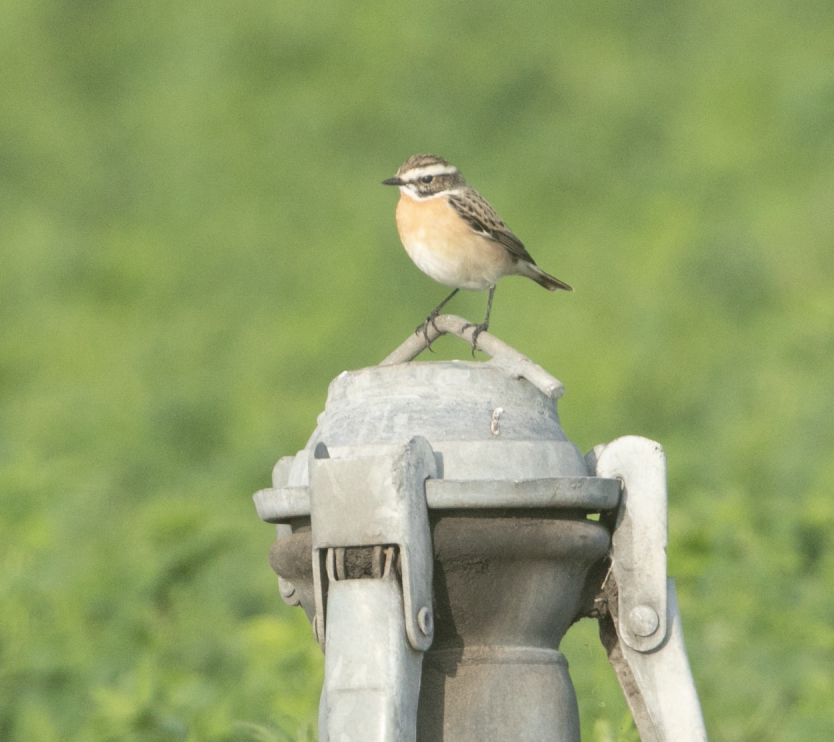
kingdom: Animalia
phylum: Chordata
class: Aves
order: Passeriformes
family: Muscicapidae
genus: Saxicola
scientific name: Saxicola rubetra
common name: Whinchat
